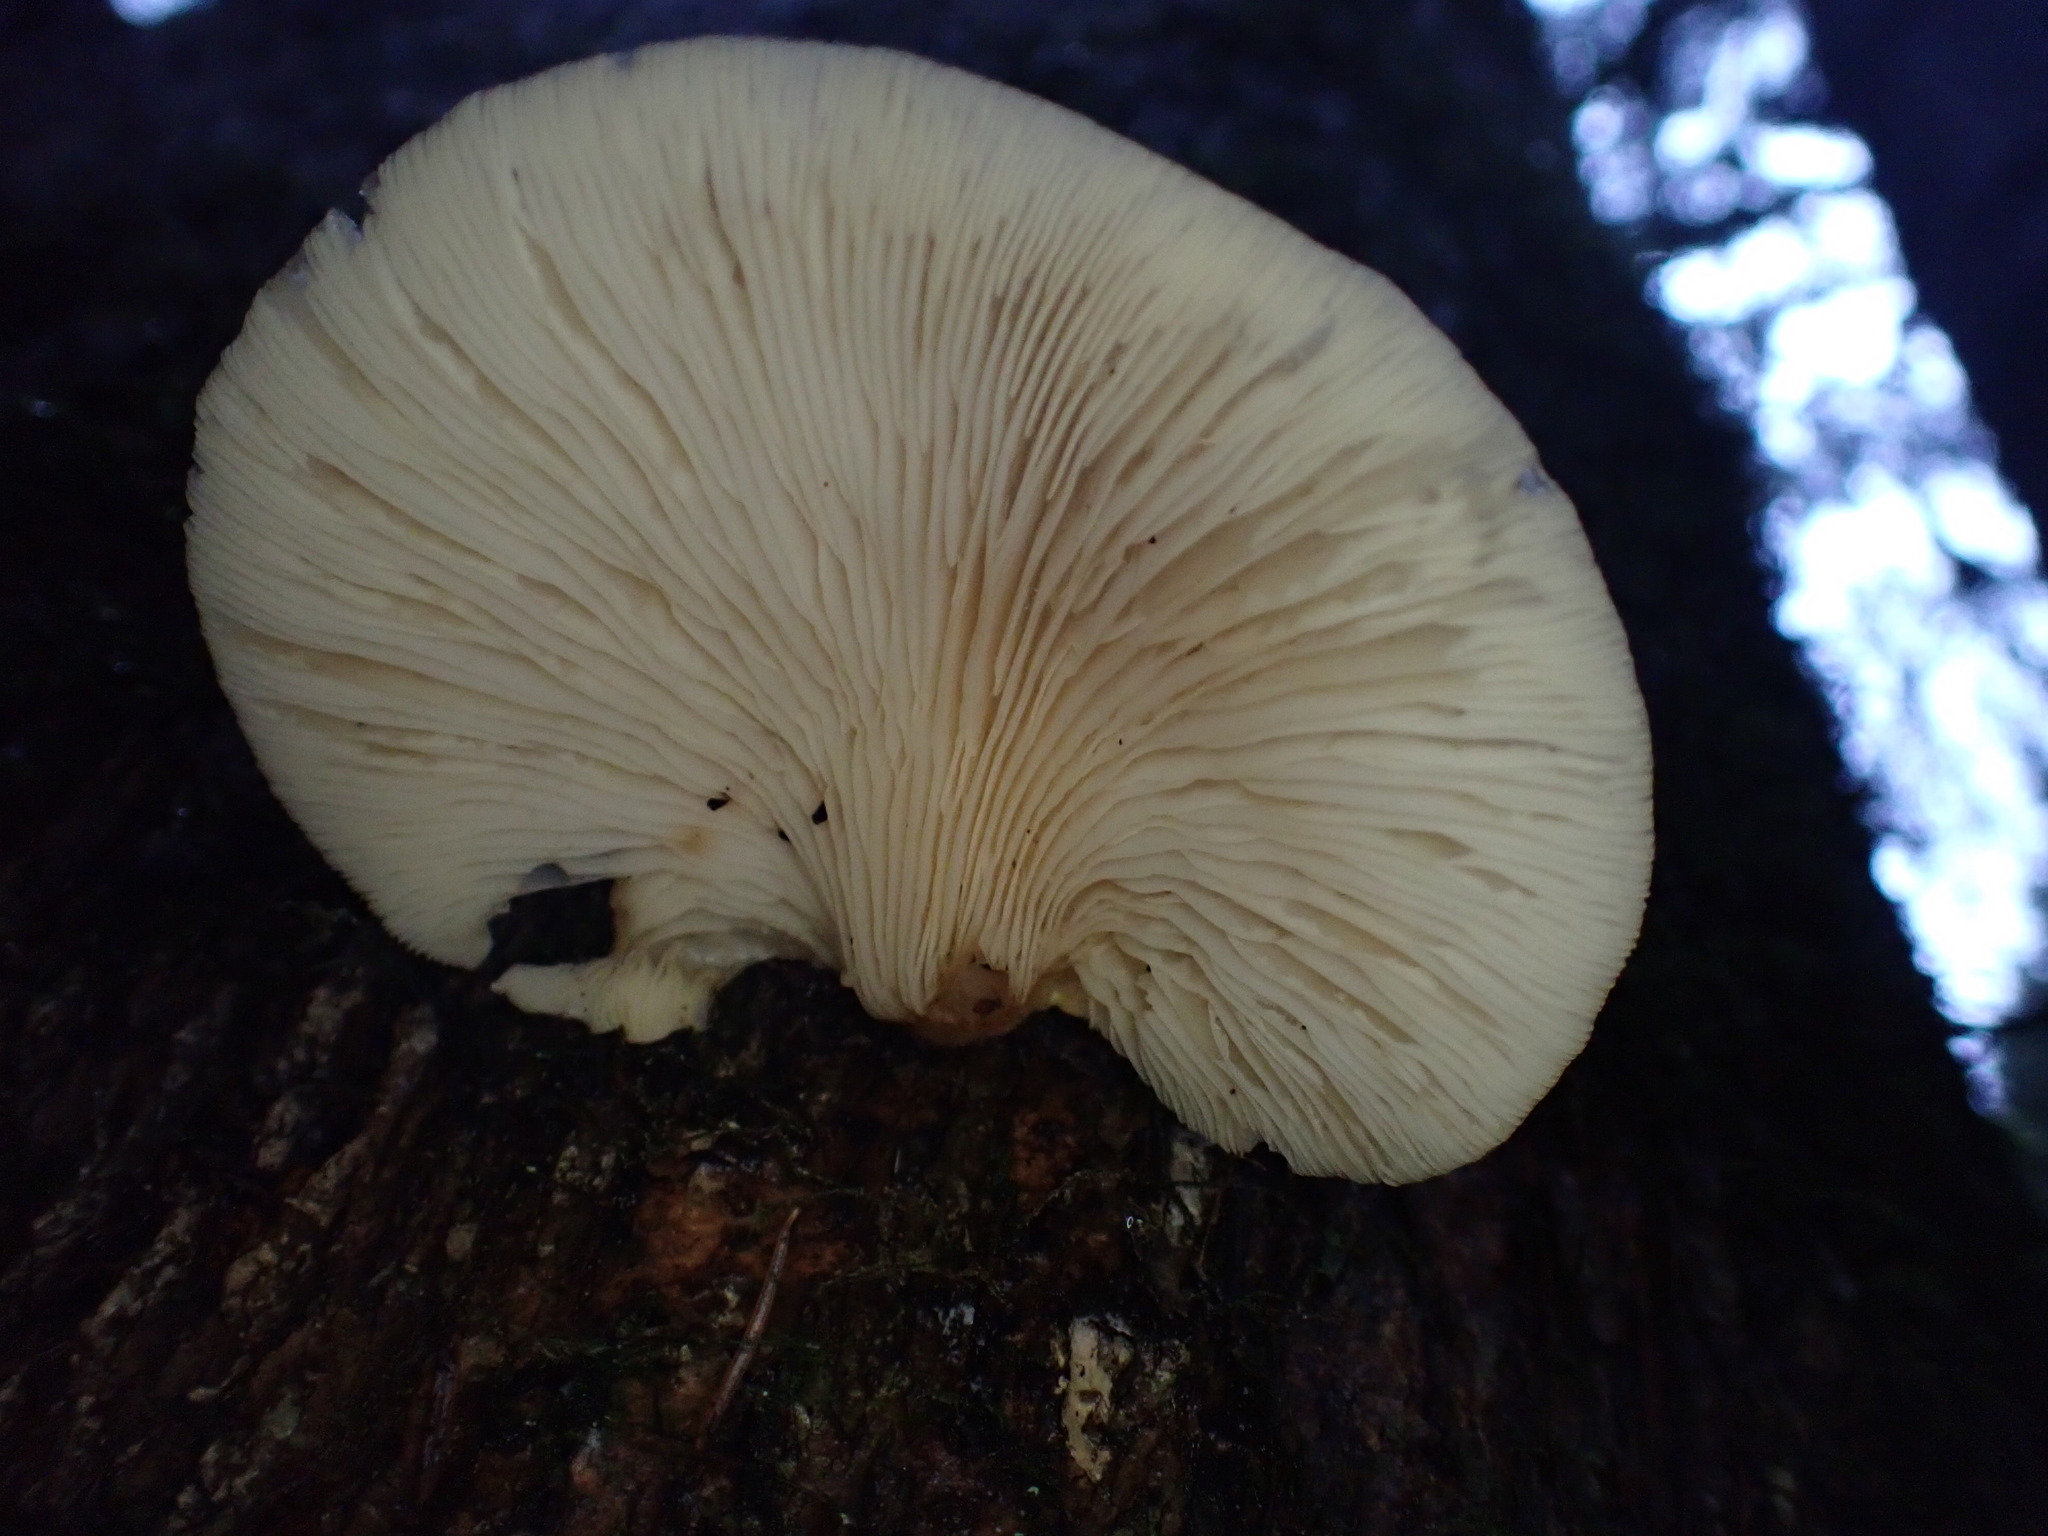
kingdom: Fungi
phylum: Basidiomycota
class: Agaricomycetes
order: Agaricales
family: Sarcomyxaceae
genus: Sarcomyxa
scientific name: Sarcomyxa serotina
